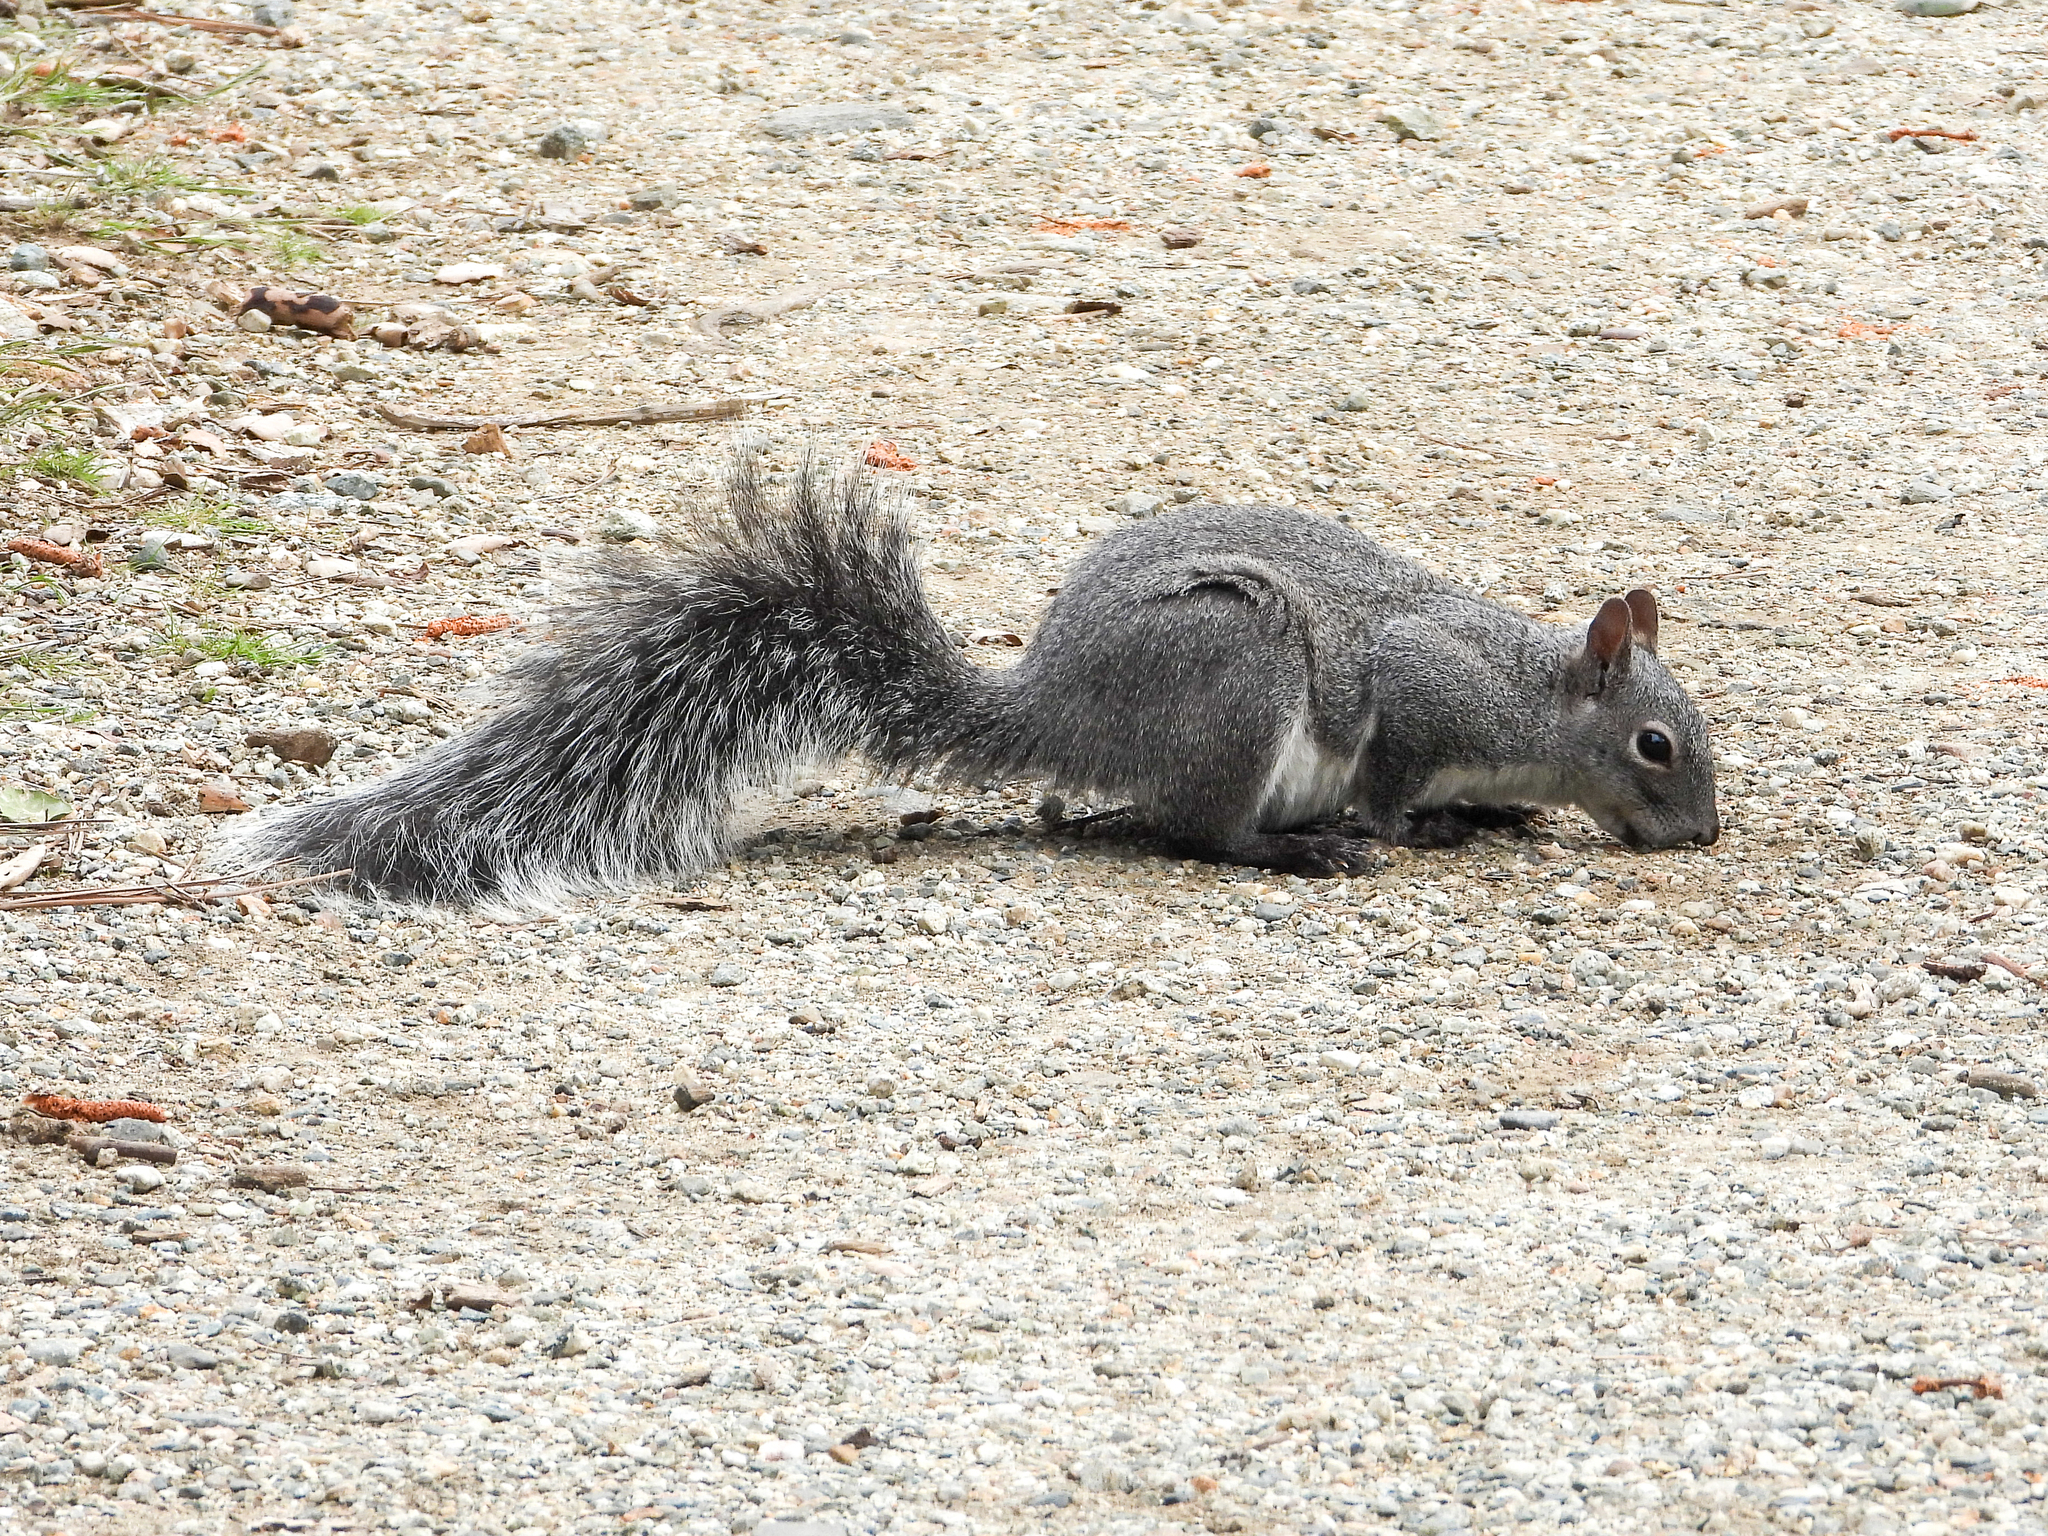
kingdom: Animalia
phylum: Chordata
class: Mammalia
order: Rodentia
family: Sciuridae
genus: Sciurus
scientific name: Sciurus griseus
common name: Western gray squirrel
